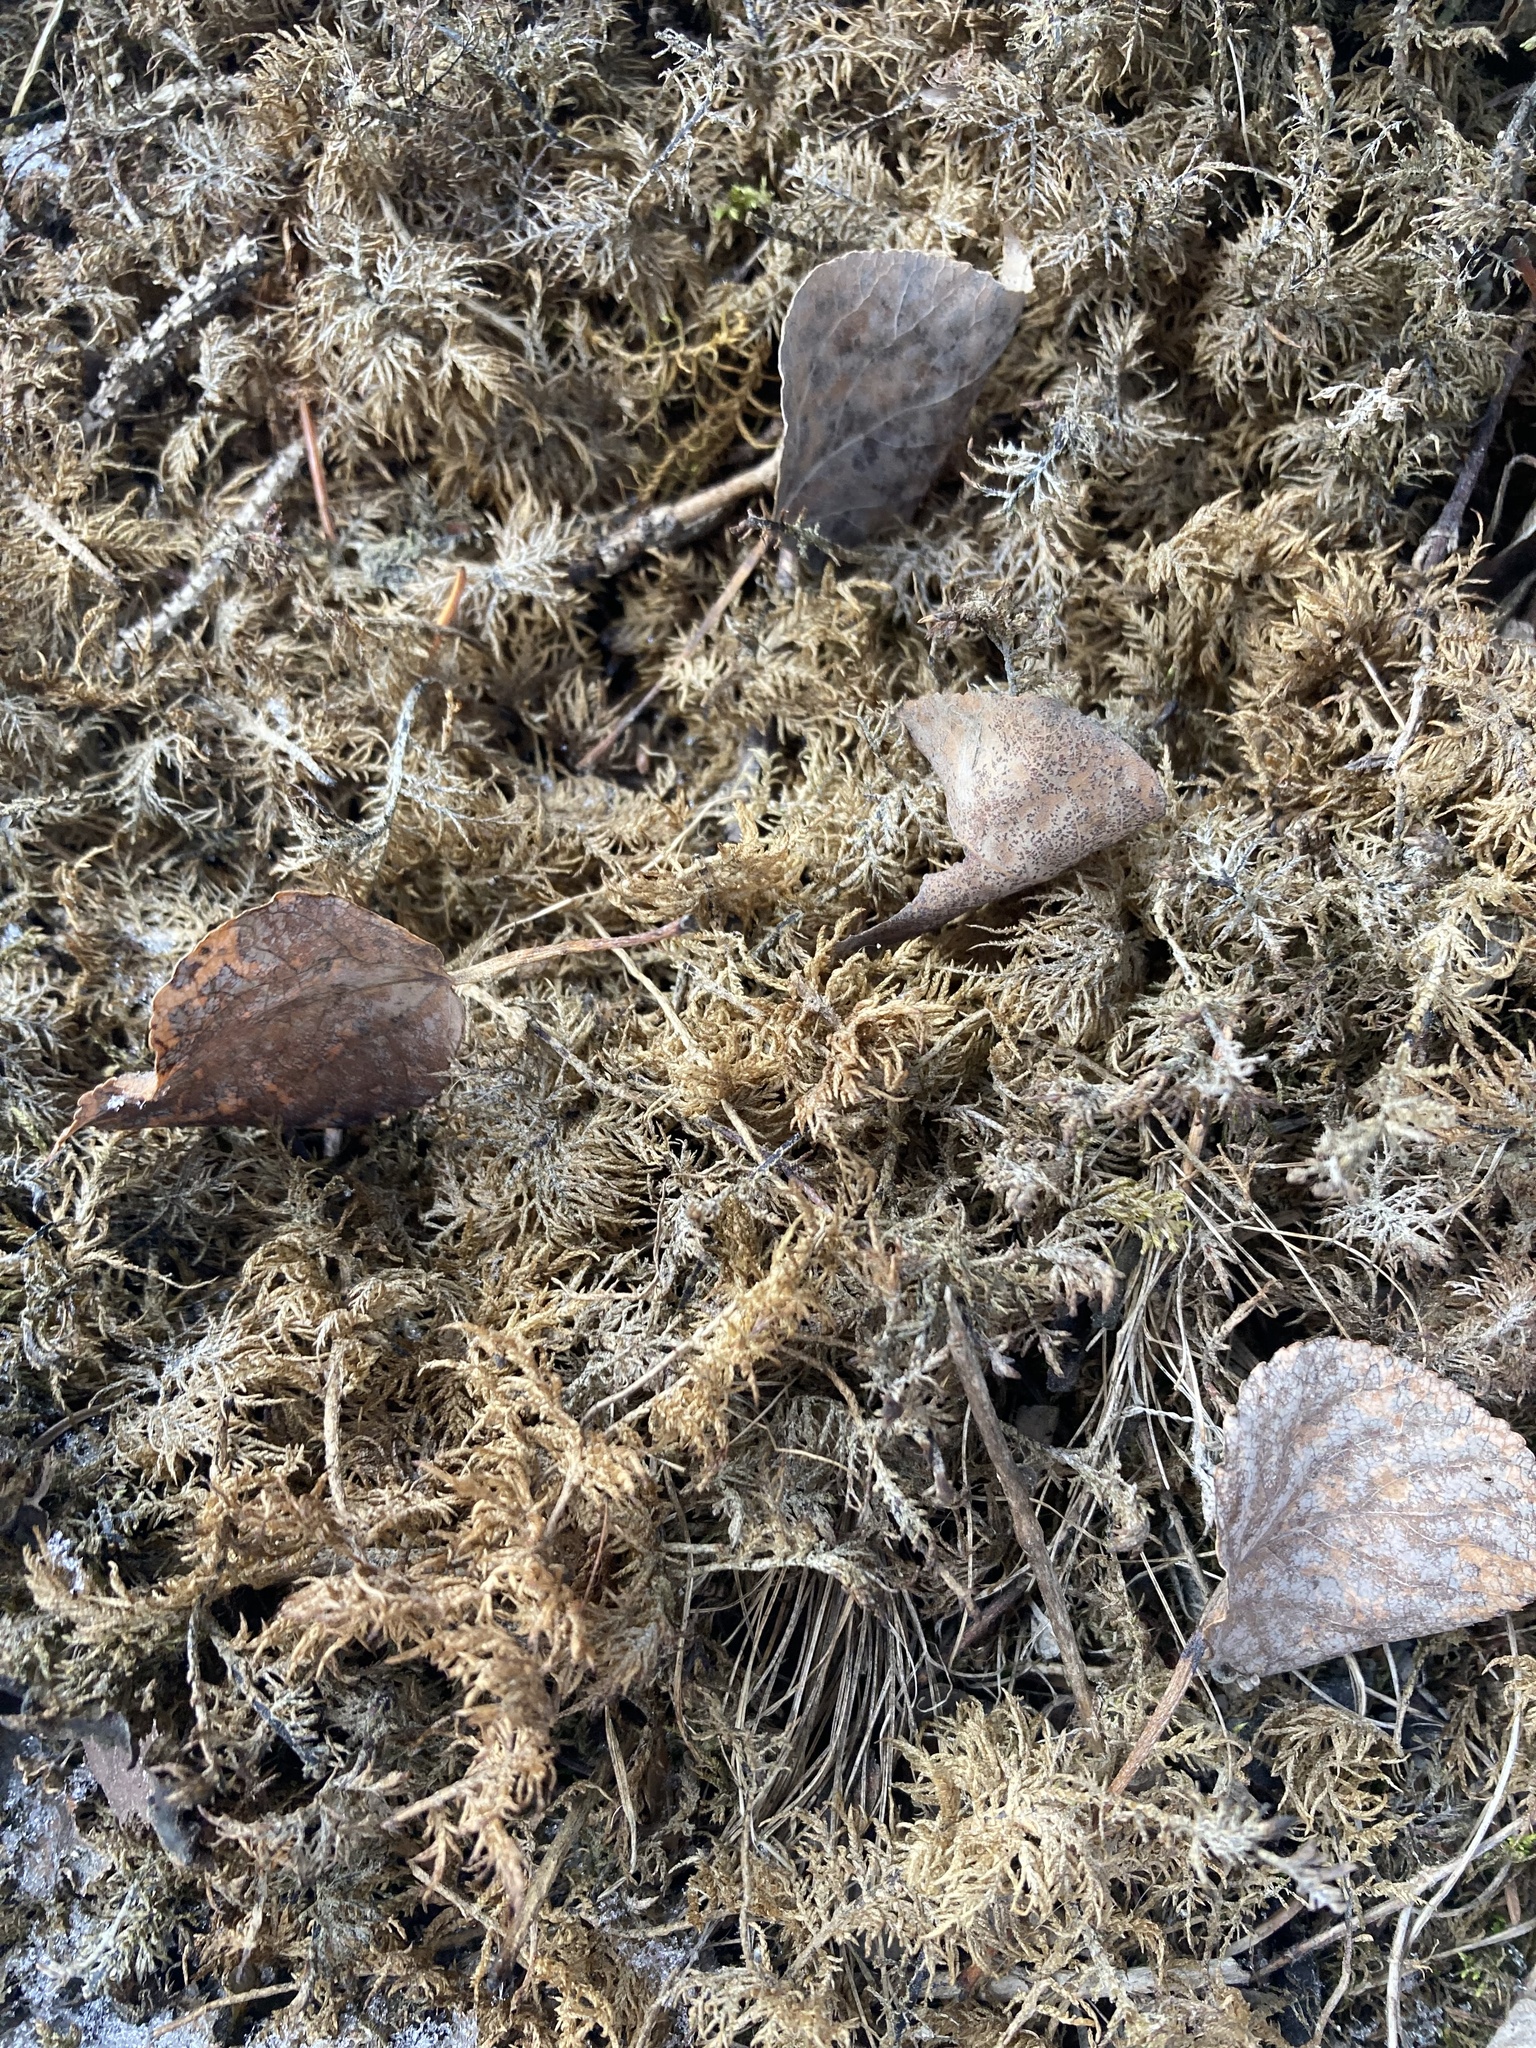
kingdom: Plantae
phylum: Bryophyta
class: Bryopsida
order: Hypnales
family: Hylocomiaceae
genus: Hylocomium
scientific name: Hylocomium splendens
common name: Stairstep moss
